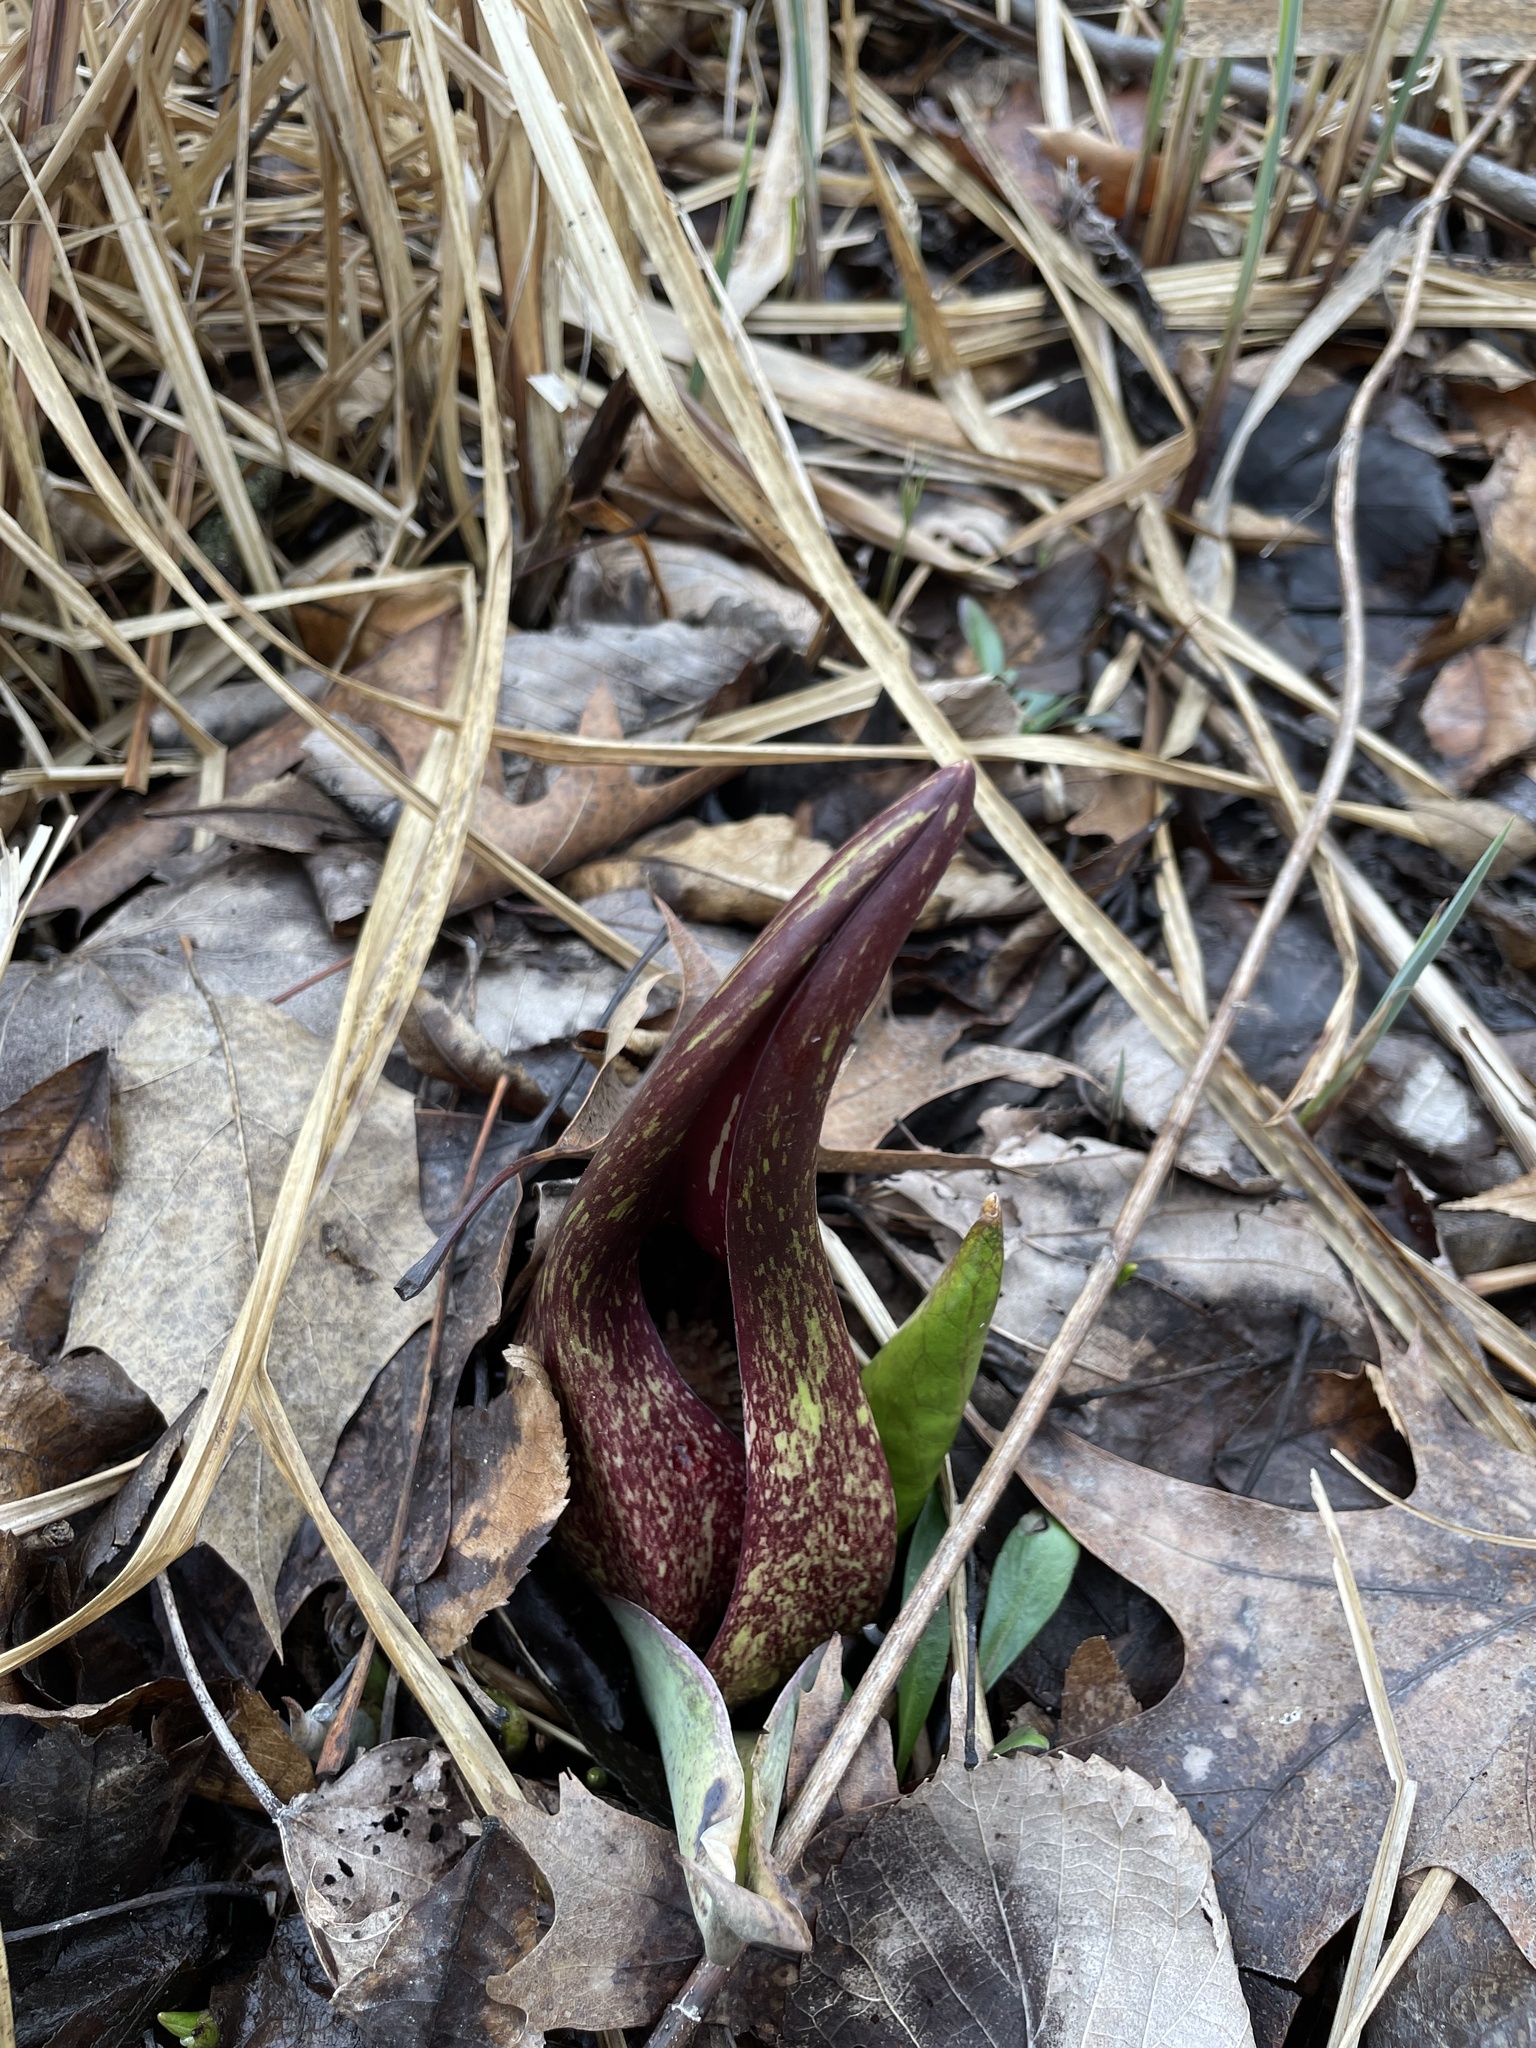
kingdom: Plantae
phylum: Tracheophyta
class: Liliopsida
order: Alismatales
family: Araceae
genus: Symplocarpus
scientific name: Symplocarpus foetidus
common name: Eastern skunk cabbage
